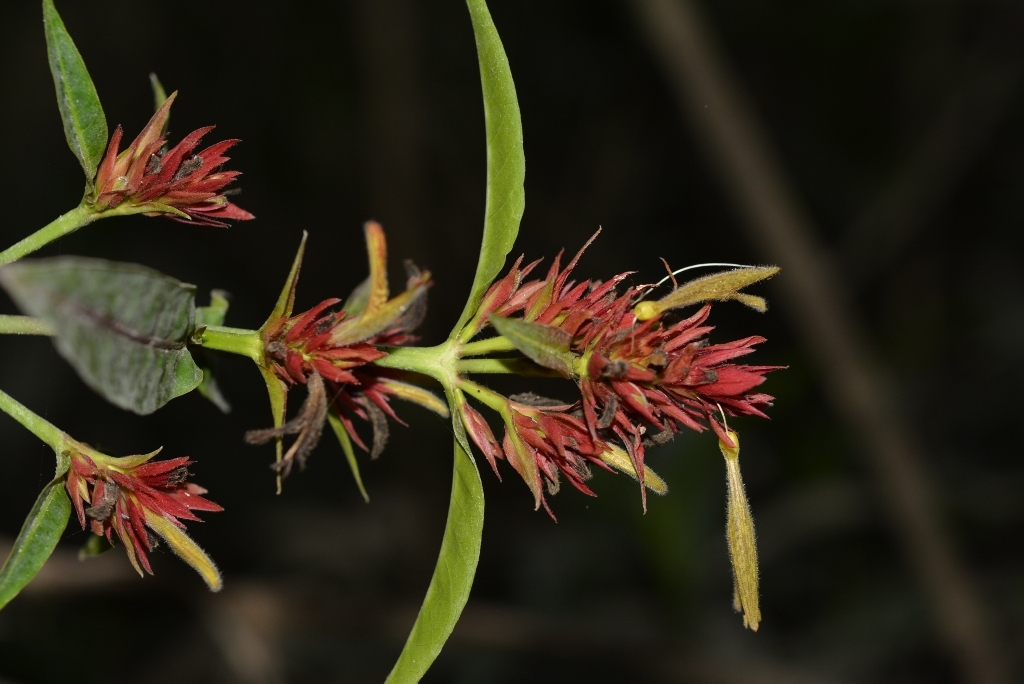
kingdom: Plantae
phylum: Tracheophyta
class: Magnoliopsida
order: Lamiales
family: Acanthaceae
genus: Justicia
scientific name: Justicia mirandae
